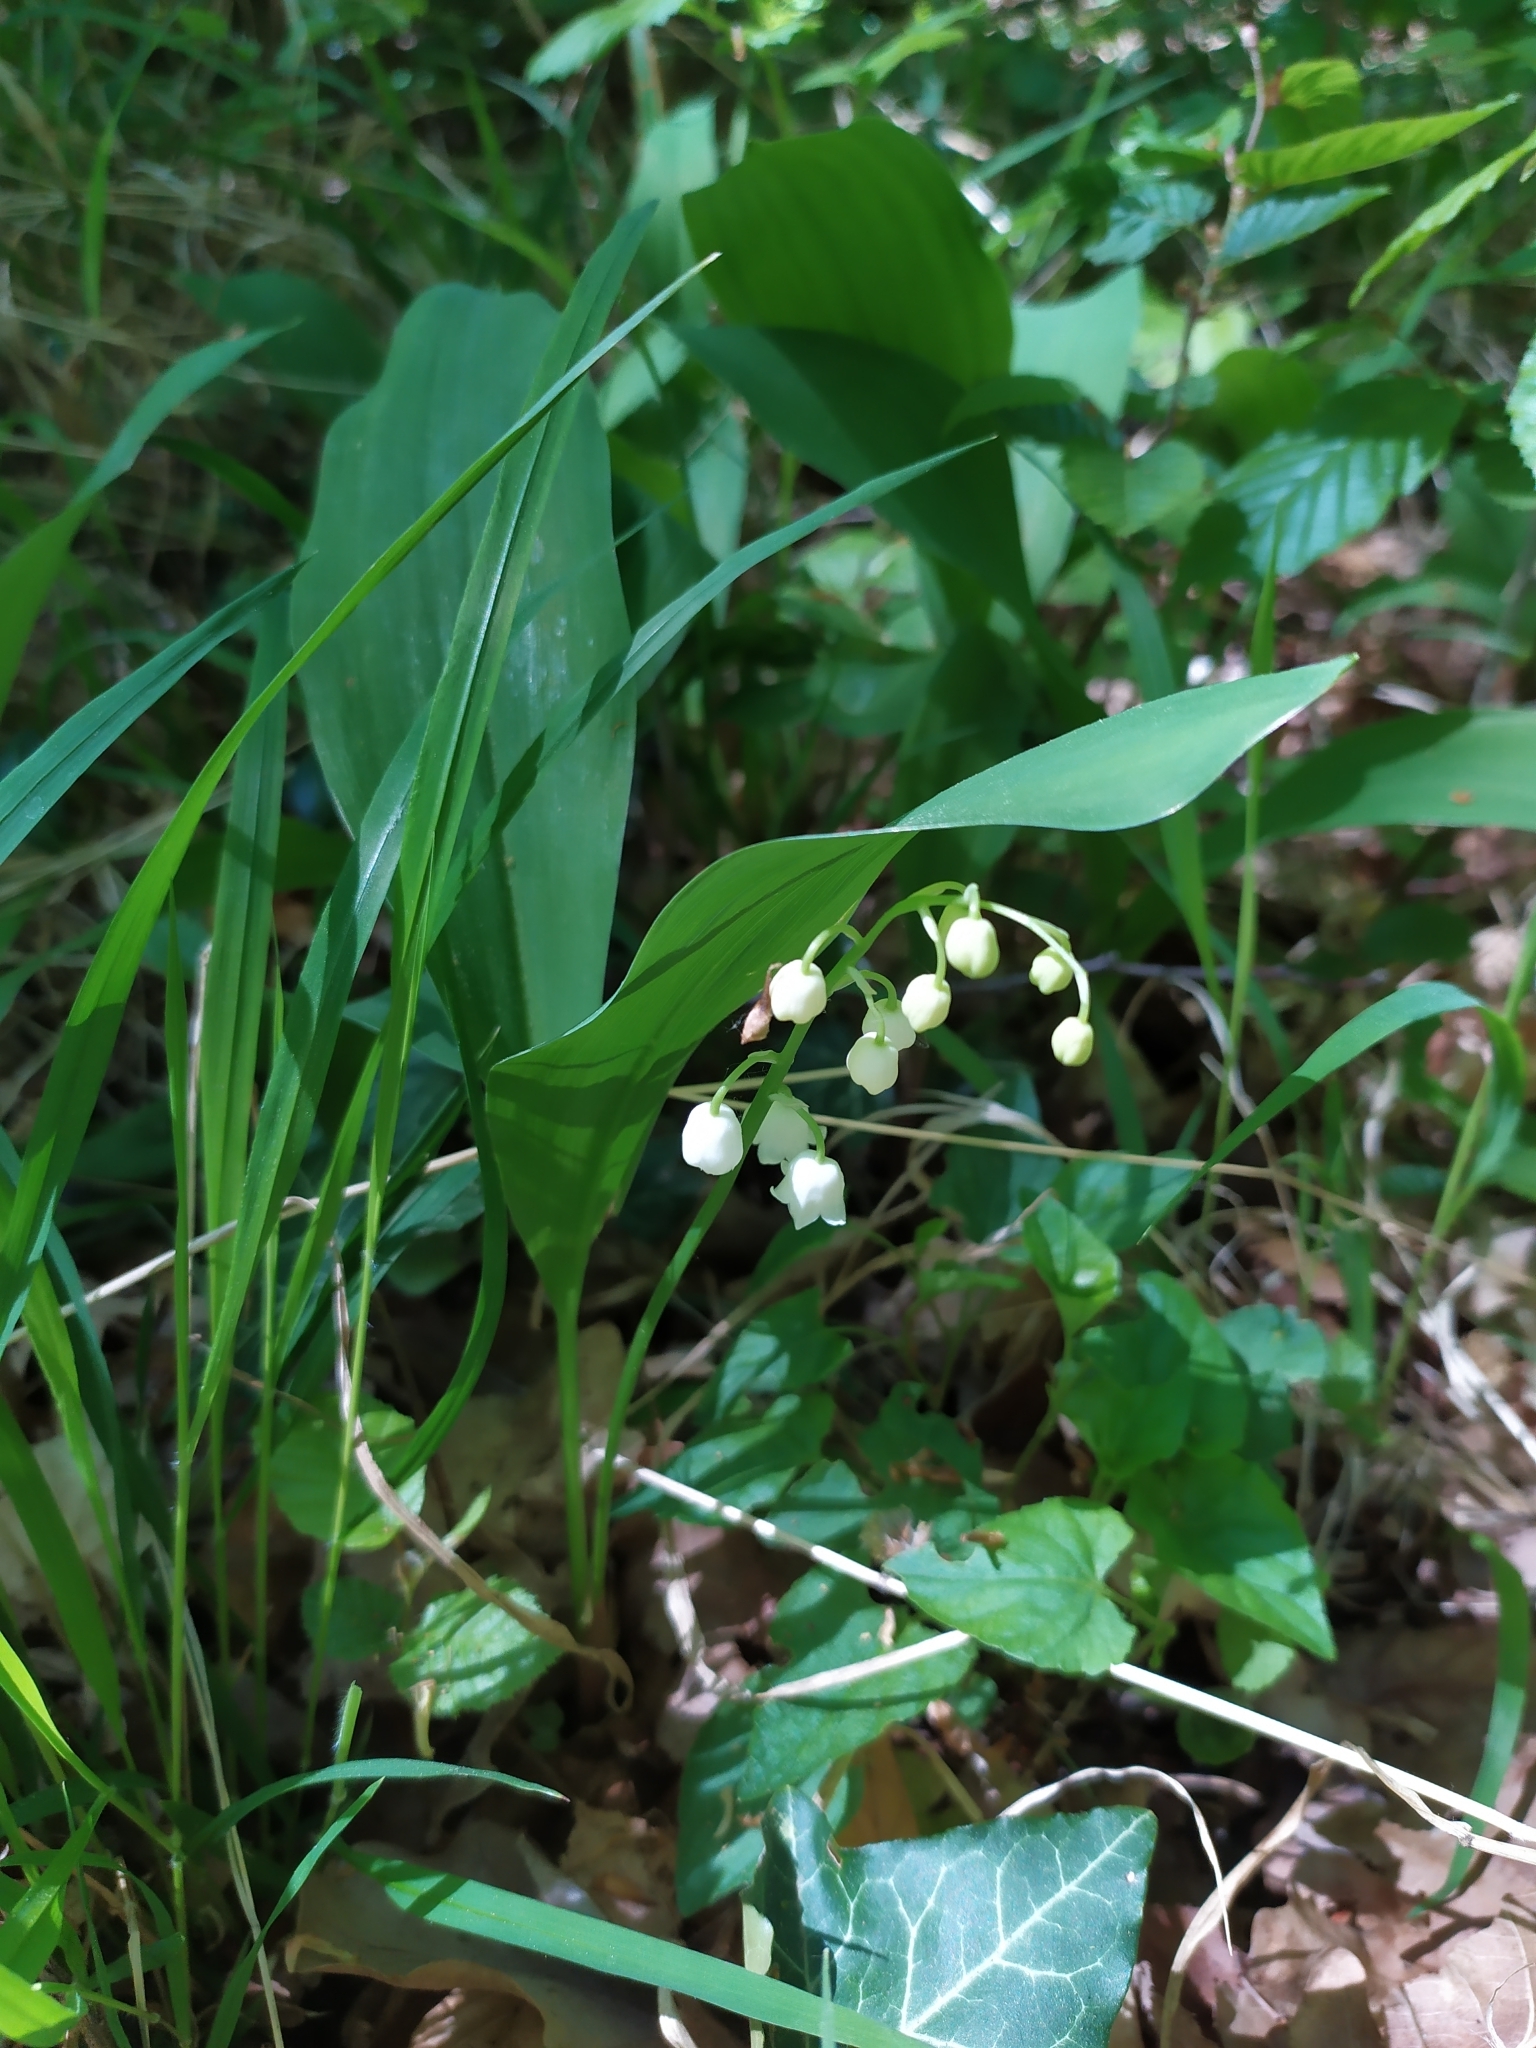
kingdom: Plantae
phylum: Tracheophyta
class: Liliopsida
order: Asparagales
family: Asparagaceae
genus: Convallaria
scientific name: Convallaria majalis
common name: Lily-of-the-valley
